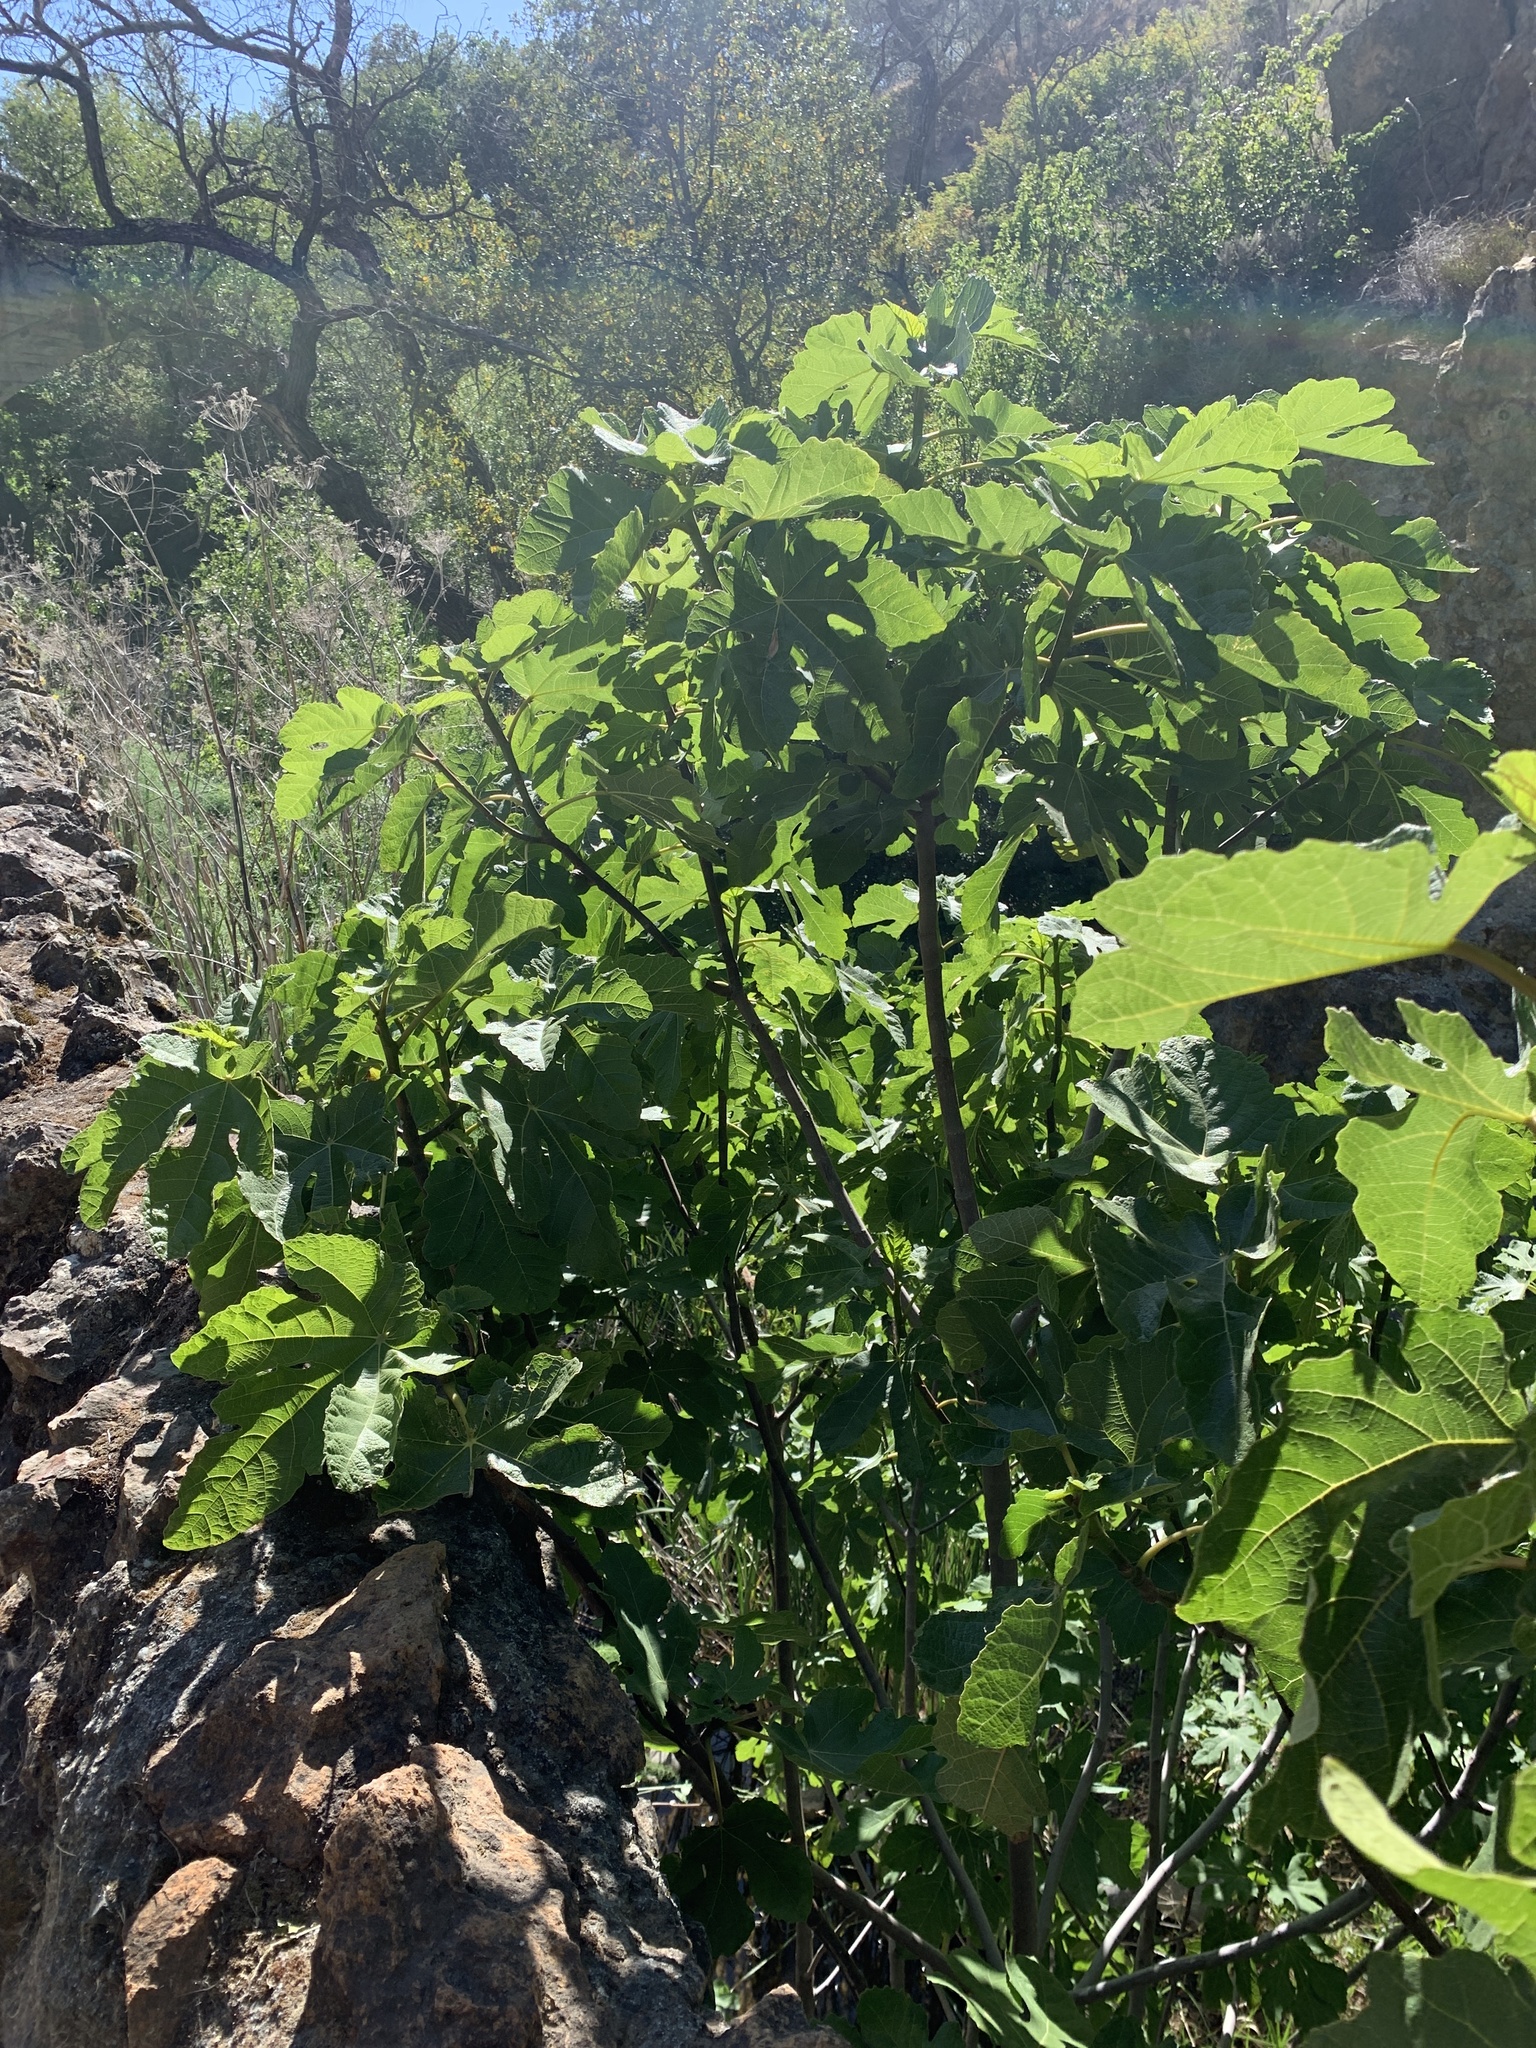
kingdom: Plantae
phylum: Tracheophyta
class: Magnoliopsida
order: Rosales
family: Moraceae
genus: Ficus
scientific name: Ficus carica
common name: Fig
